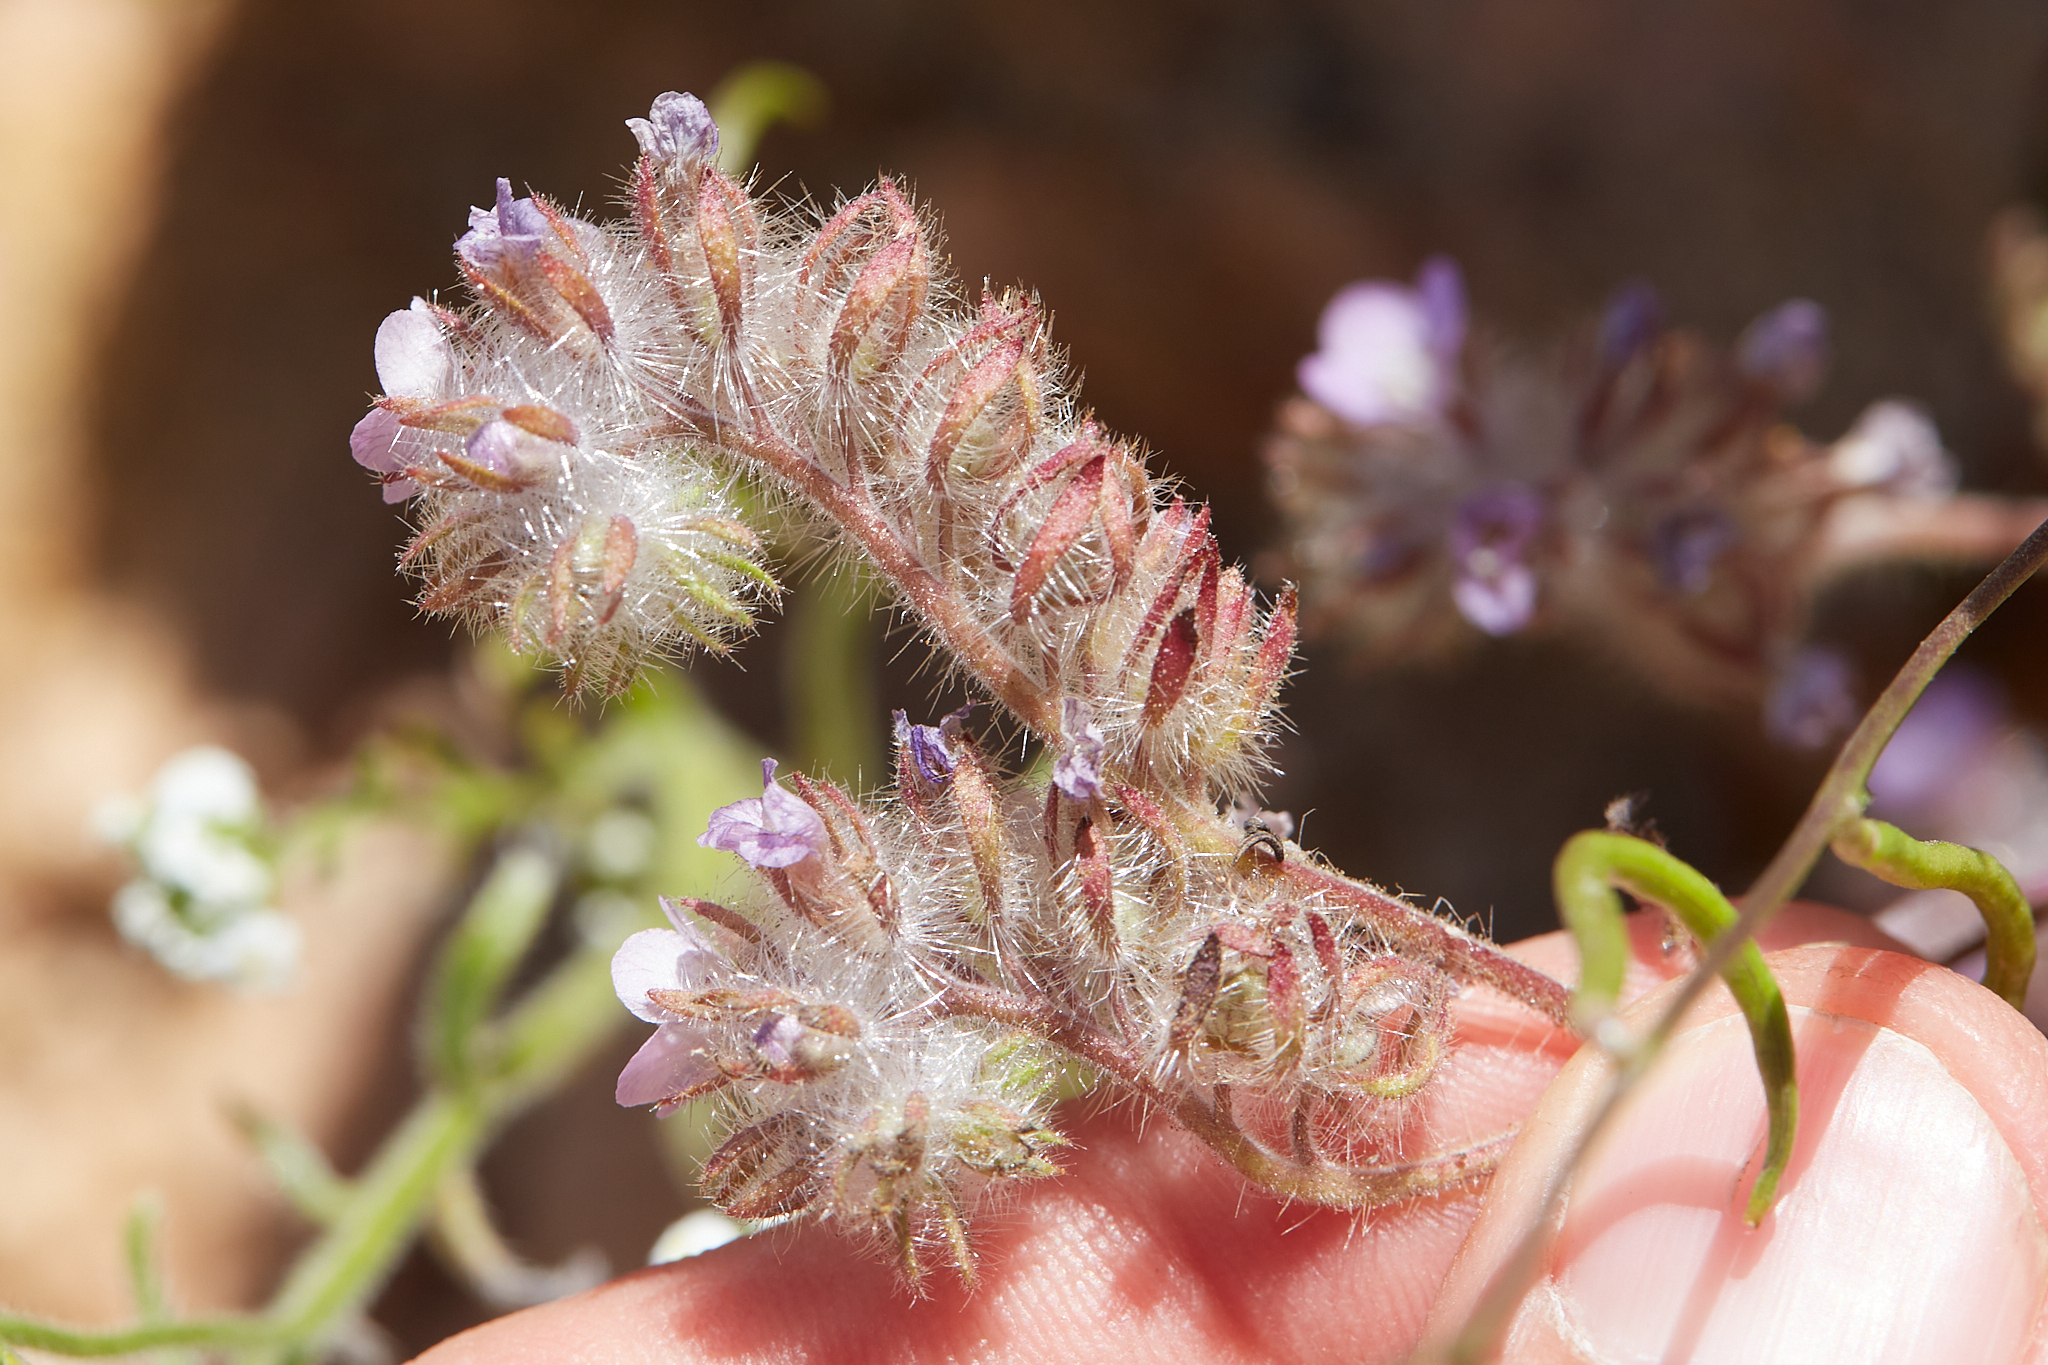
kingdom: Plantae
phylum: Tracheophyta
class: Magnoliopsida
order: Boraginales
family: Hydrophyllaceae
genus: Phacelia
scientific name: Phacelia cryptantha
